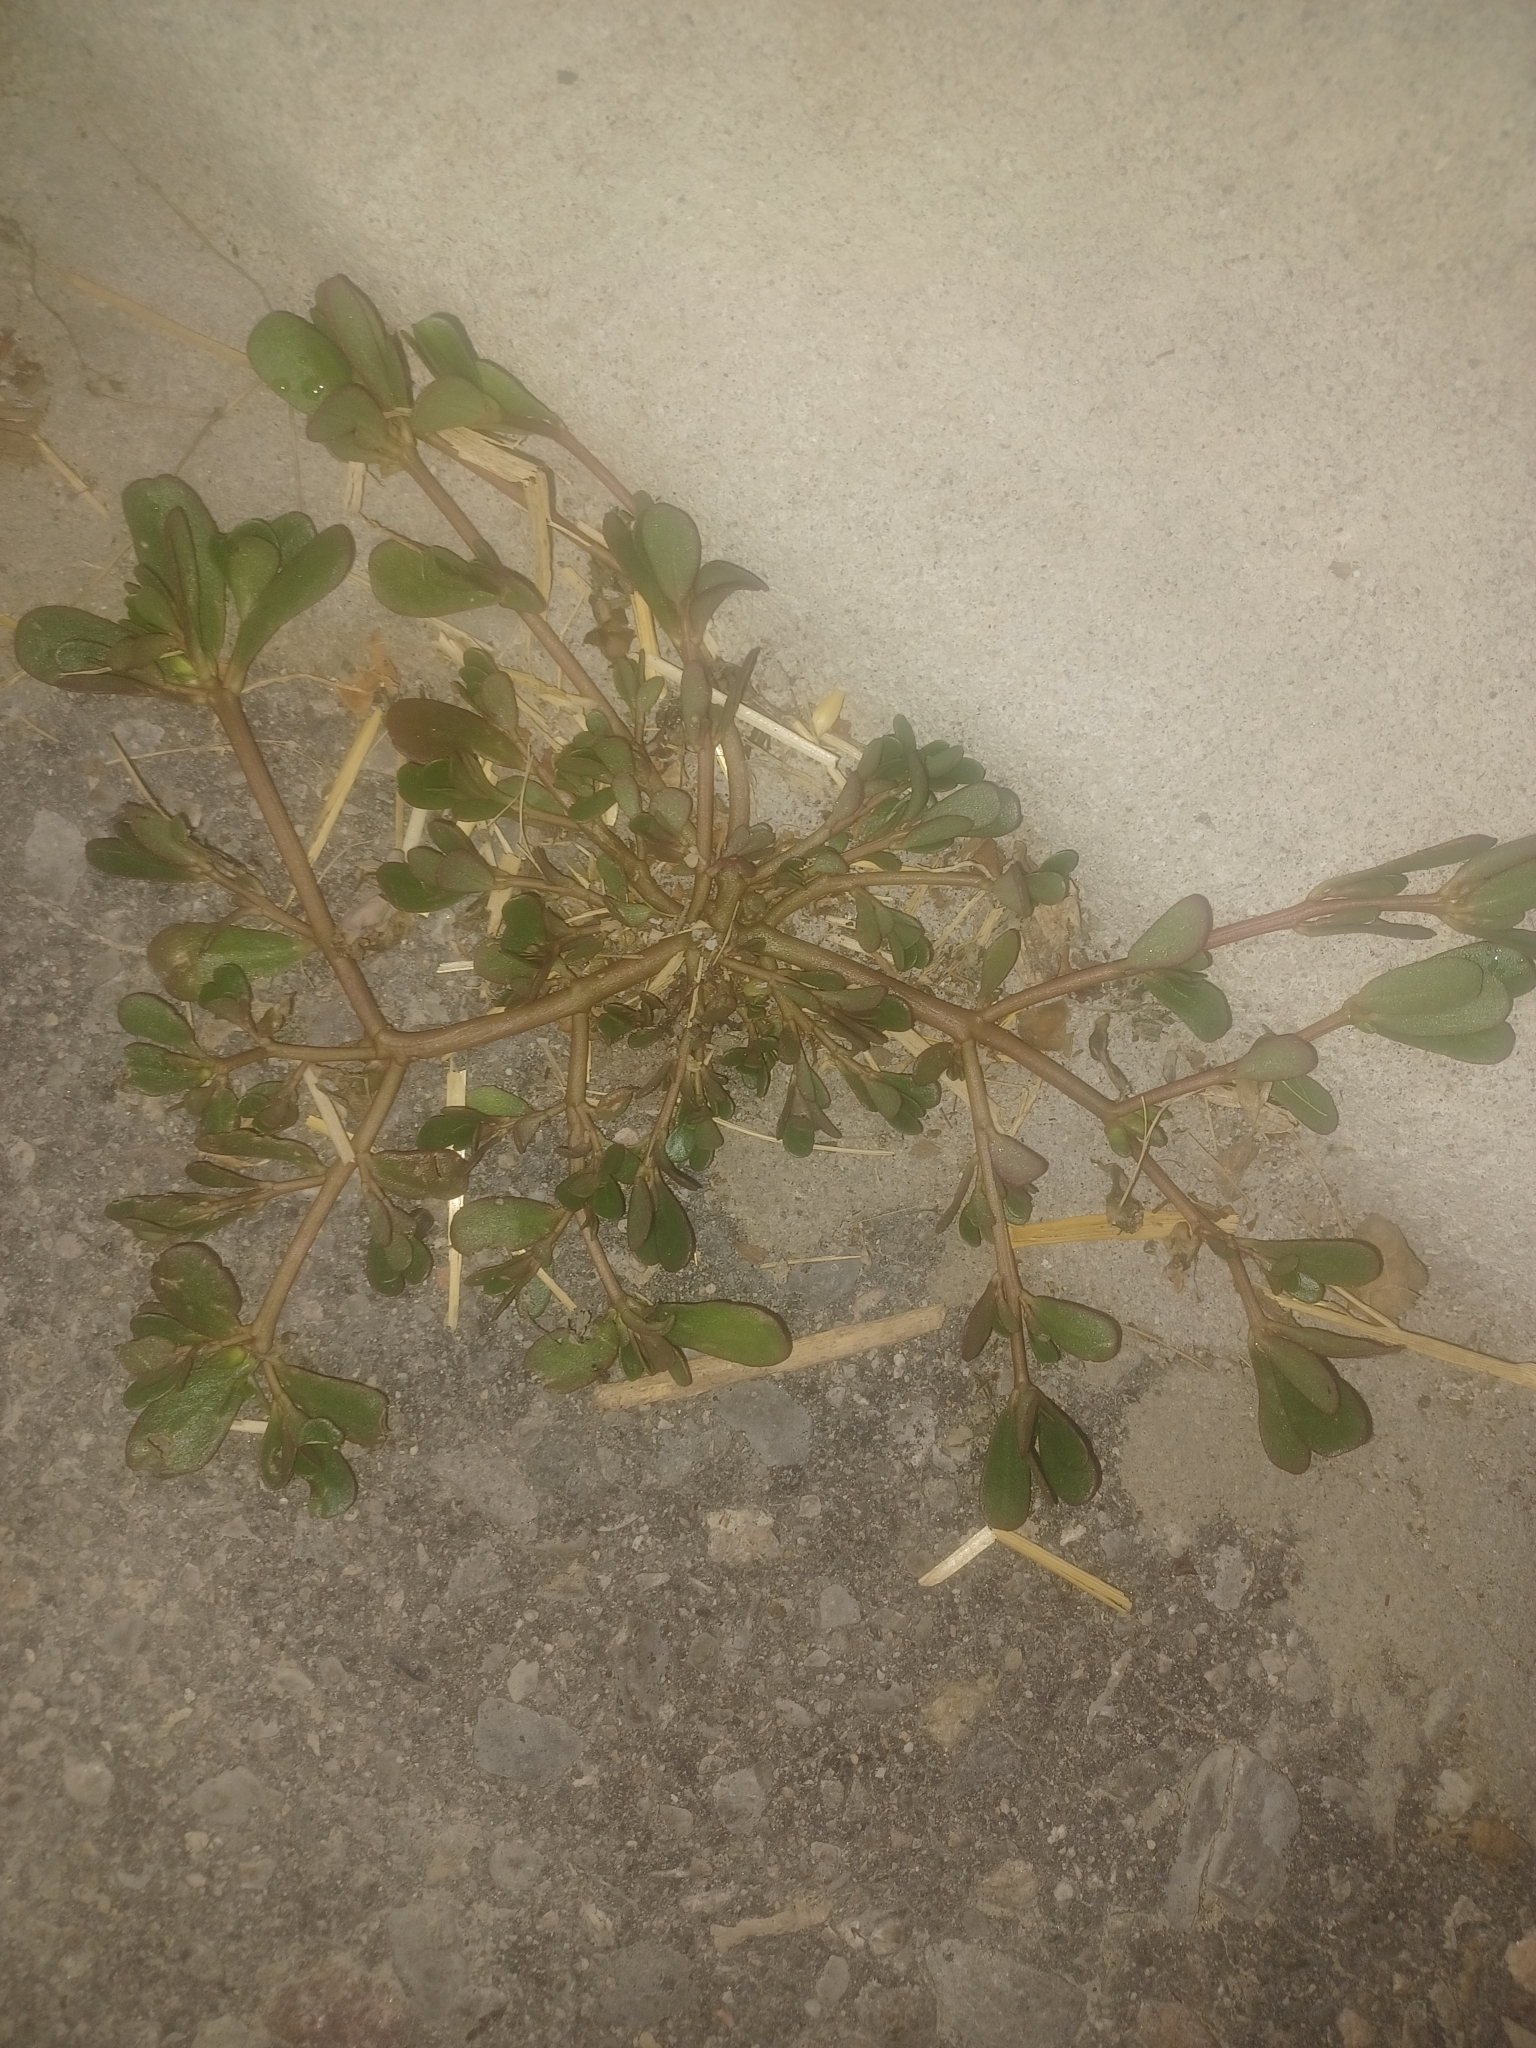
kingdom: Plantae
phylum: Tracheophyta
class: Magnoliopsida
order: Caryophyllales
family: Portulacaceae
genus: Portulaca
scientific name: Portulaca oleracea
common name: Common purslane
